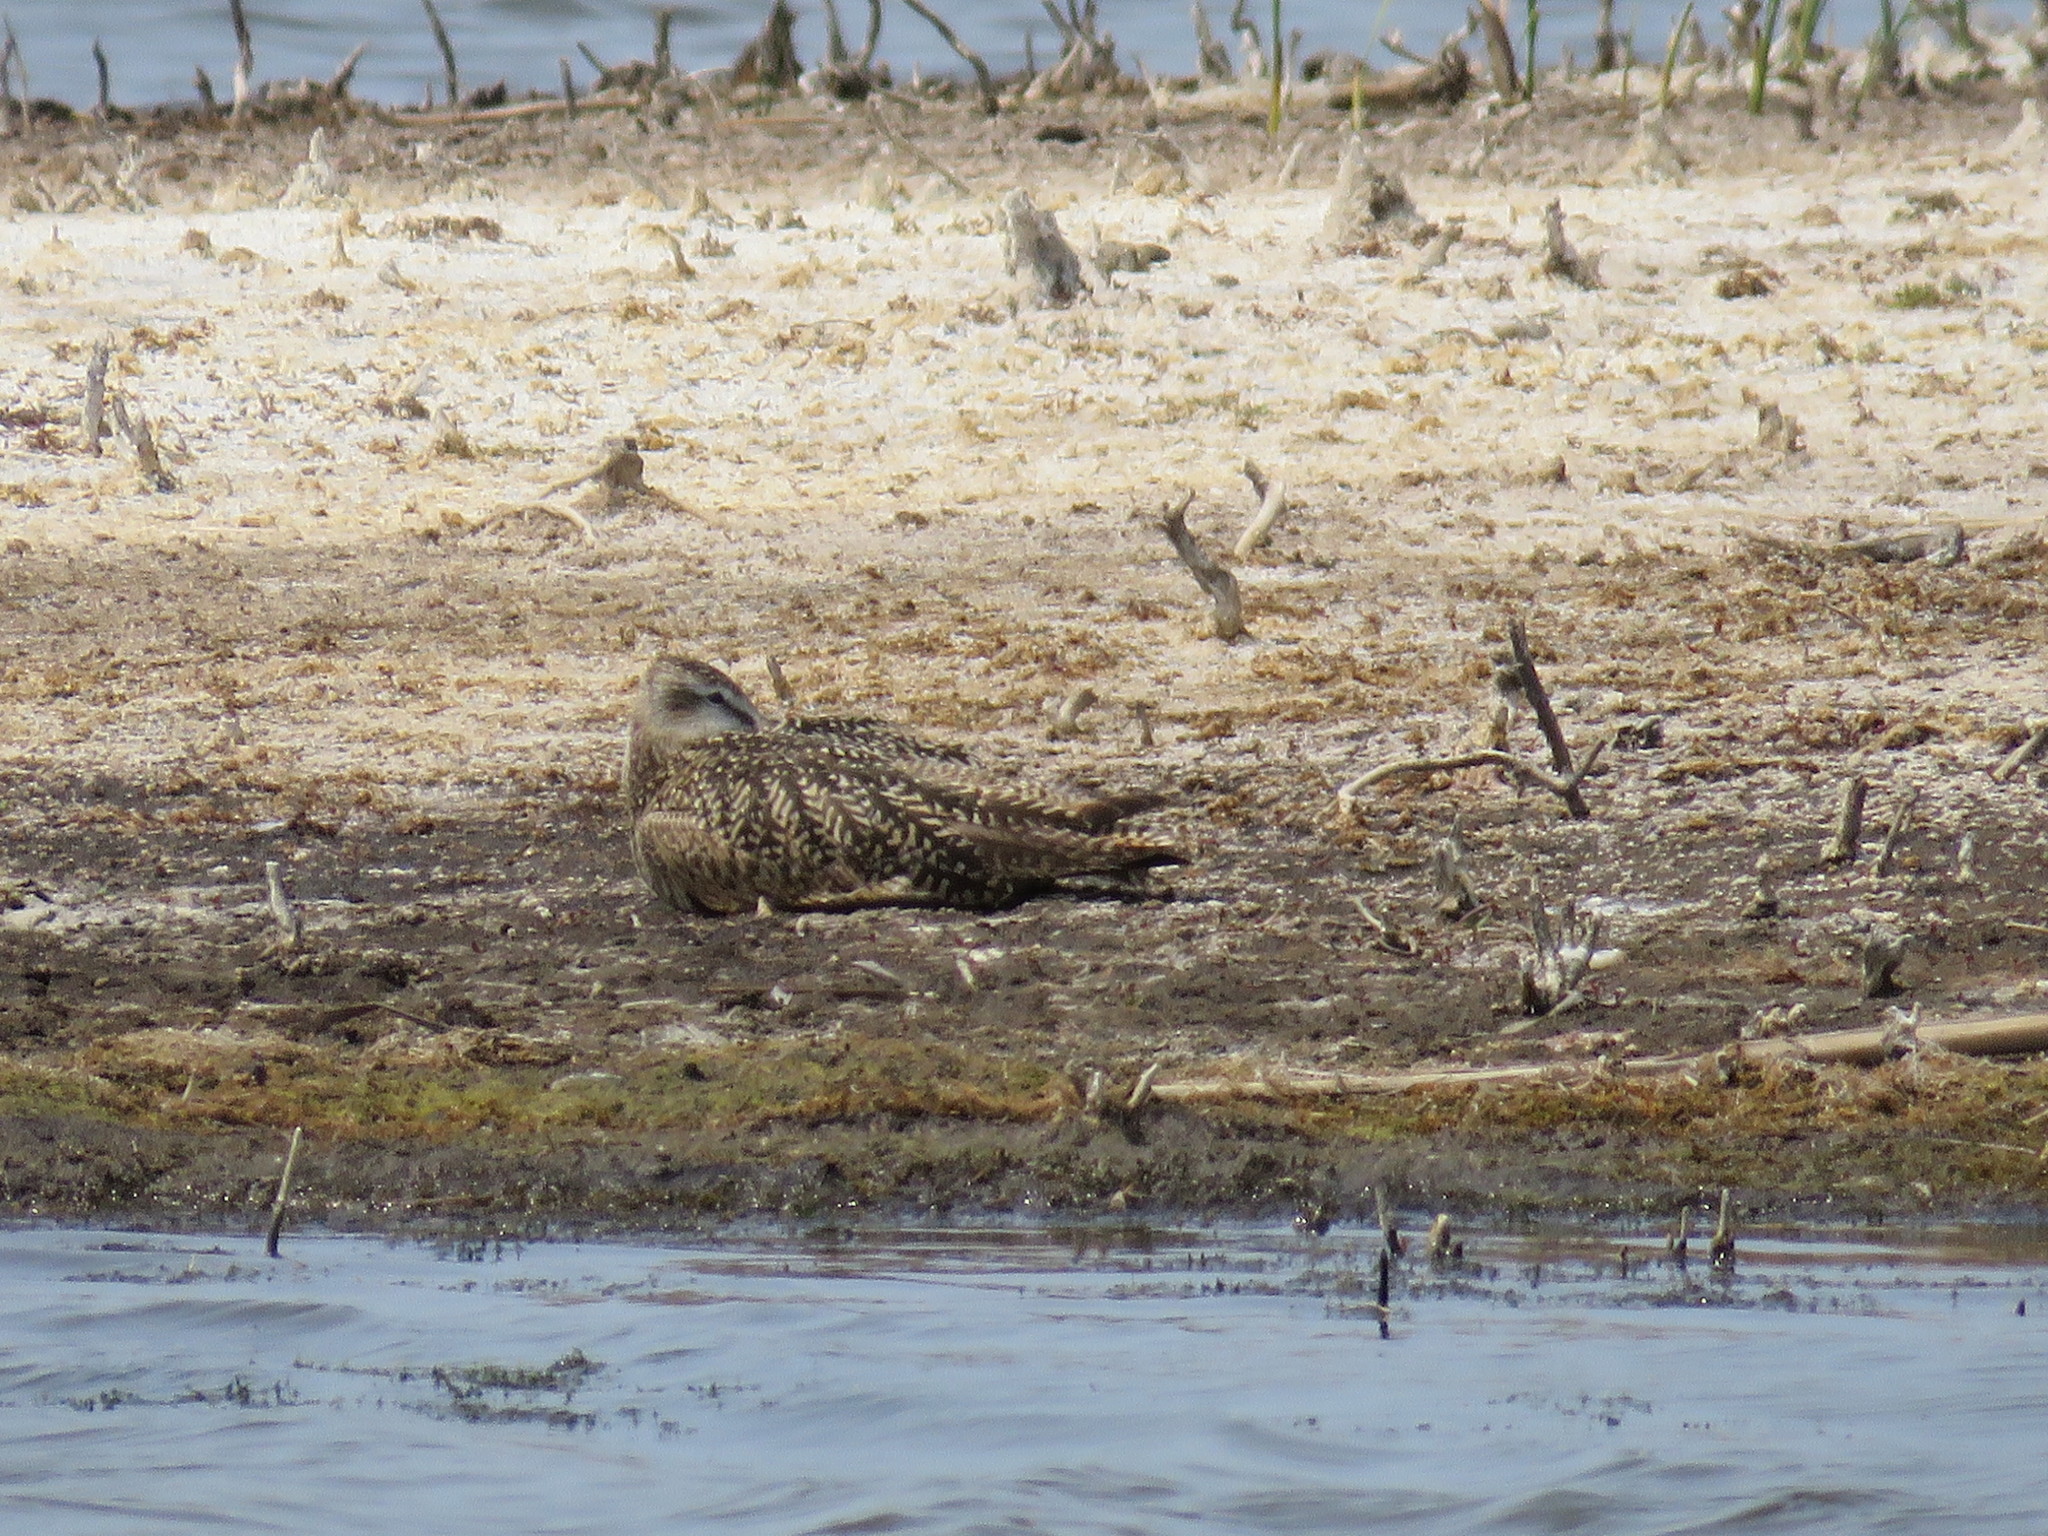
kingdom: Animalia
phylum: Chordata
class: Aves
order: Charadriiformes
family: Scolopacidae
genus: Limosa
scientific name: Limosa fedoa
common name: Marbled godwit
